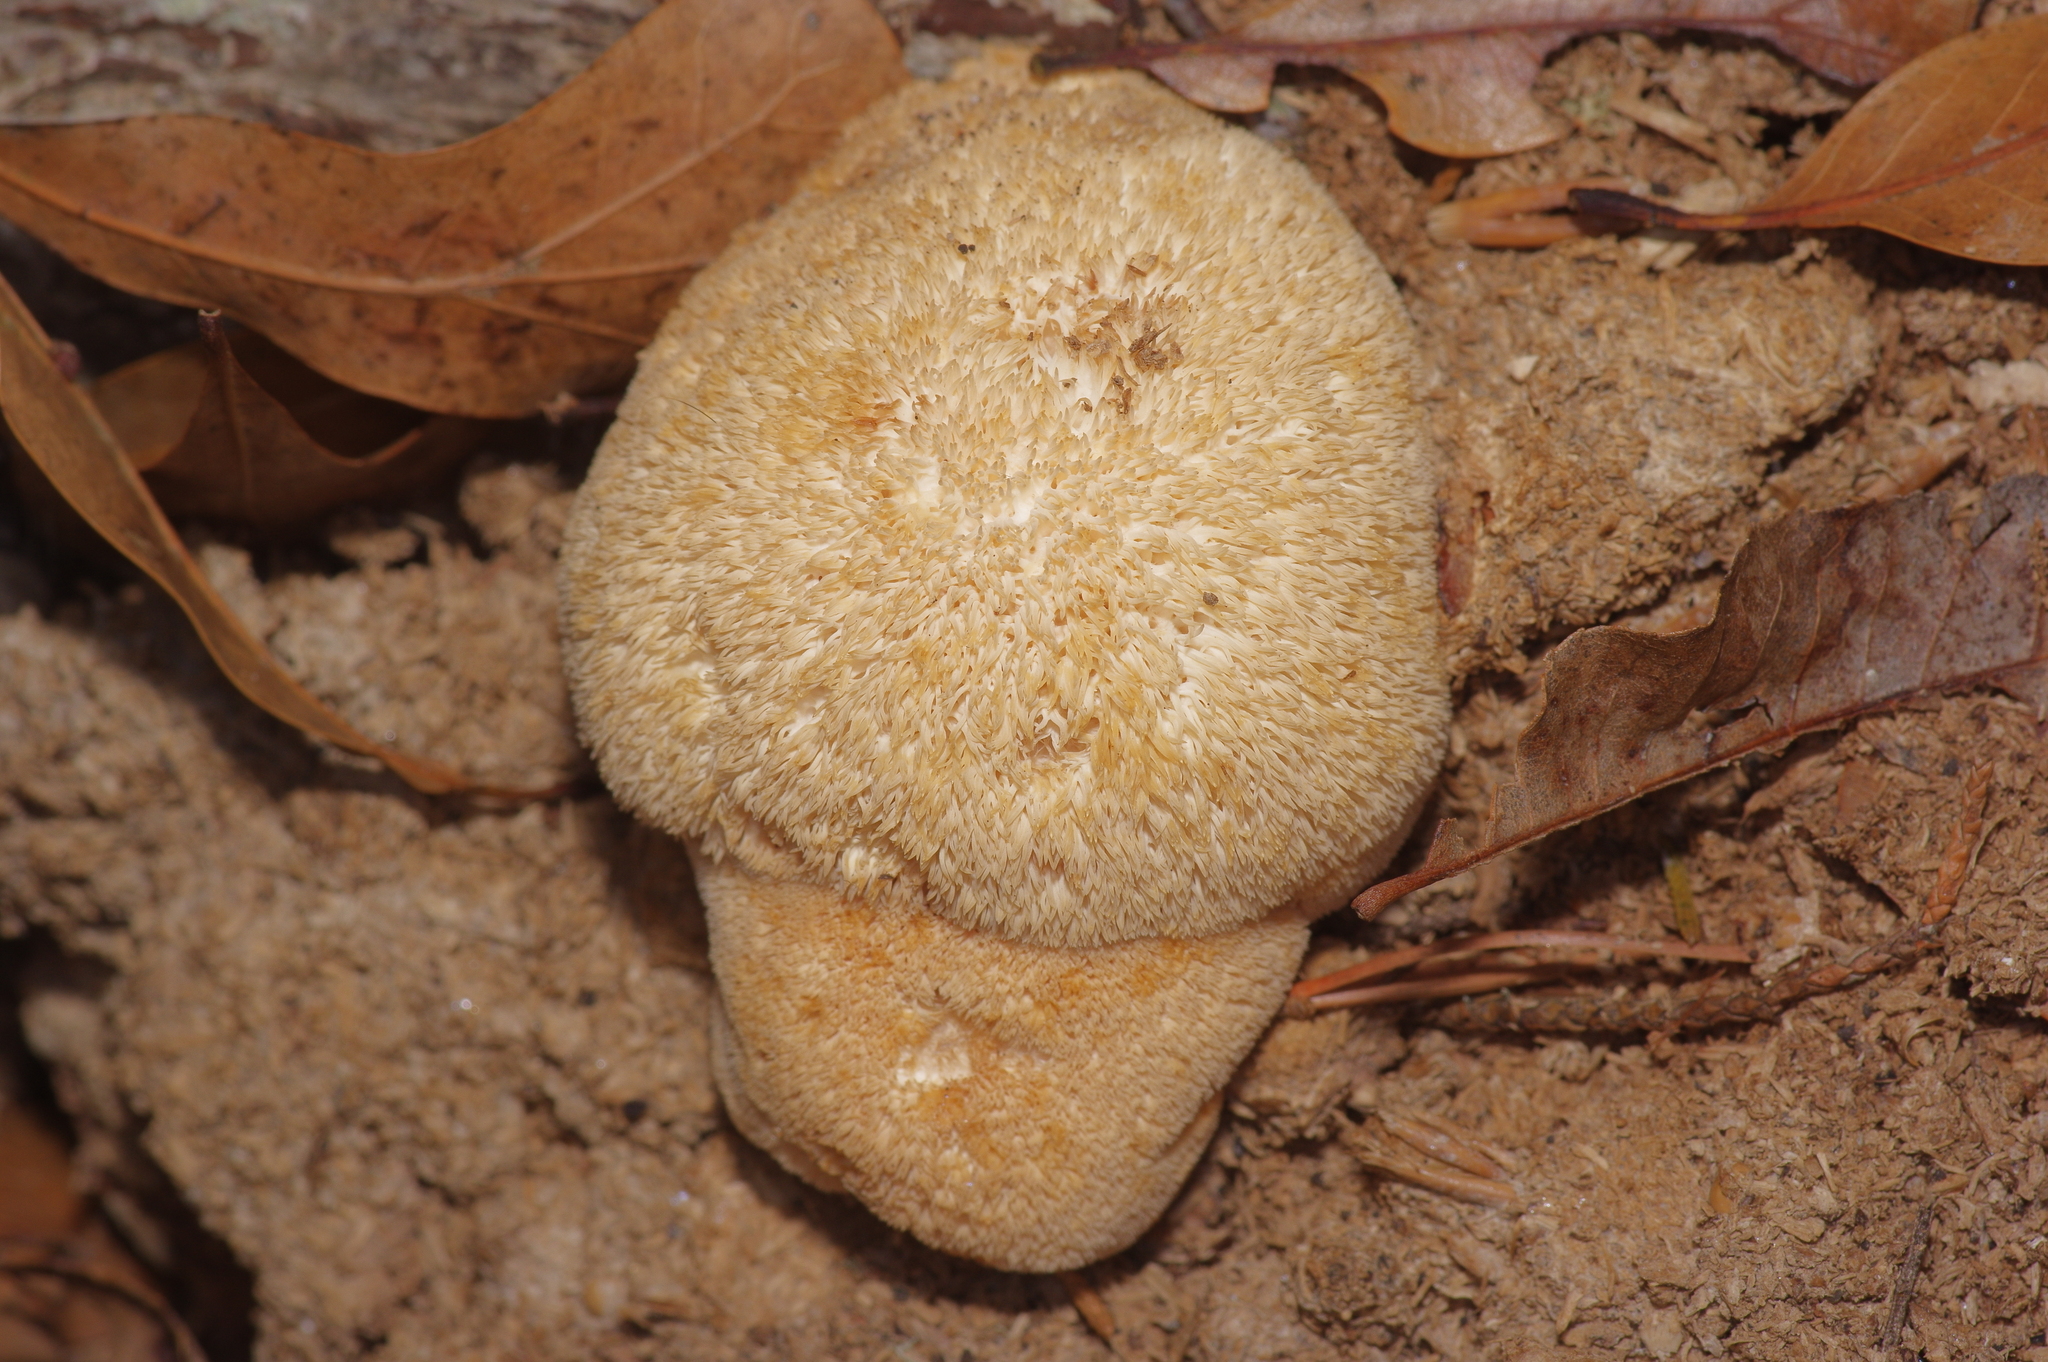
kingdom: Fungi
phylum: Basidiomycota
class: Agaricomycetes
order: Russulales
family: Hericiaceae
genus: Hericium
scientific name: Hericium erinaceus
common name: Bearded tooth
